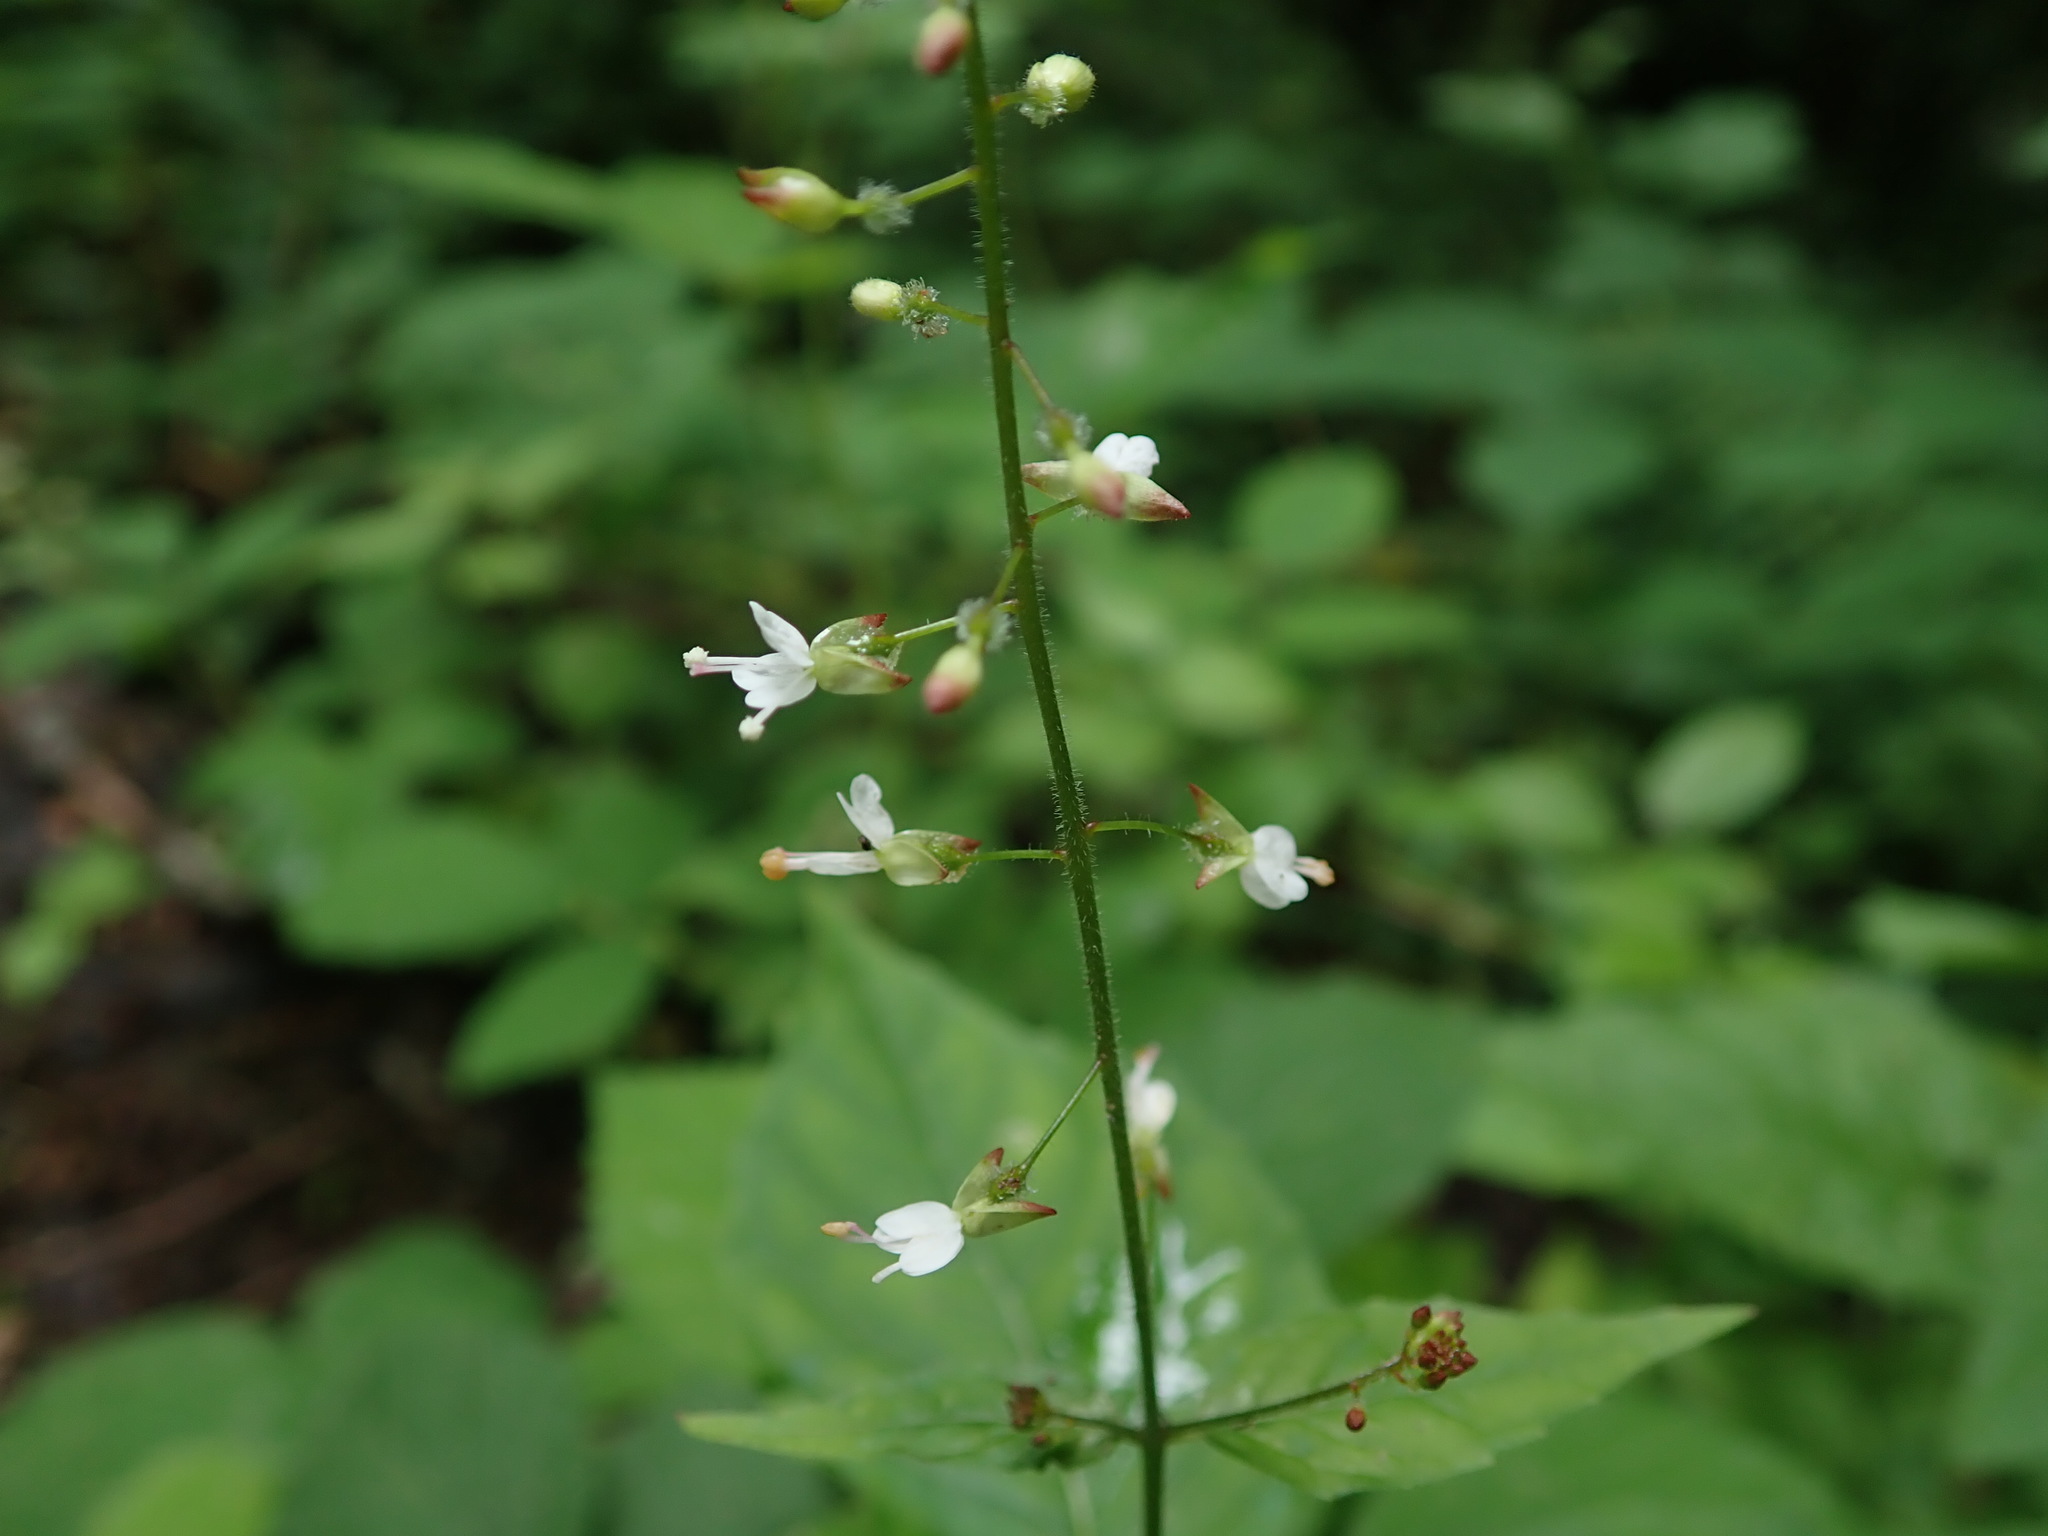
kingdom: Plantae
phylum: Tracheophyta
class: Magnoliopsida
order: Myrtales
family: Onagraceae
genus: Circaea
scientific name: Circaea lutetiana
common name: Enchanter's-nightshade
